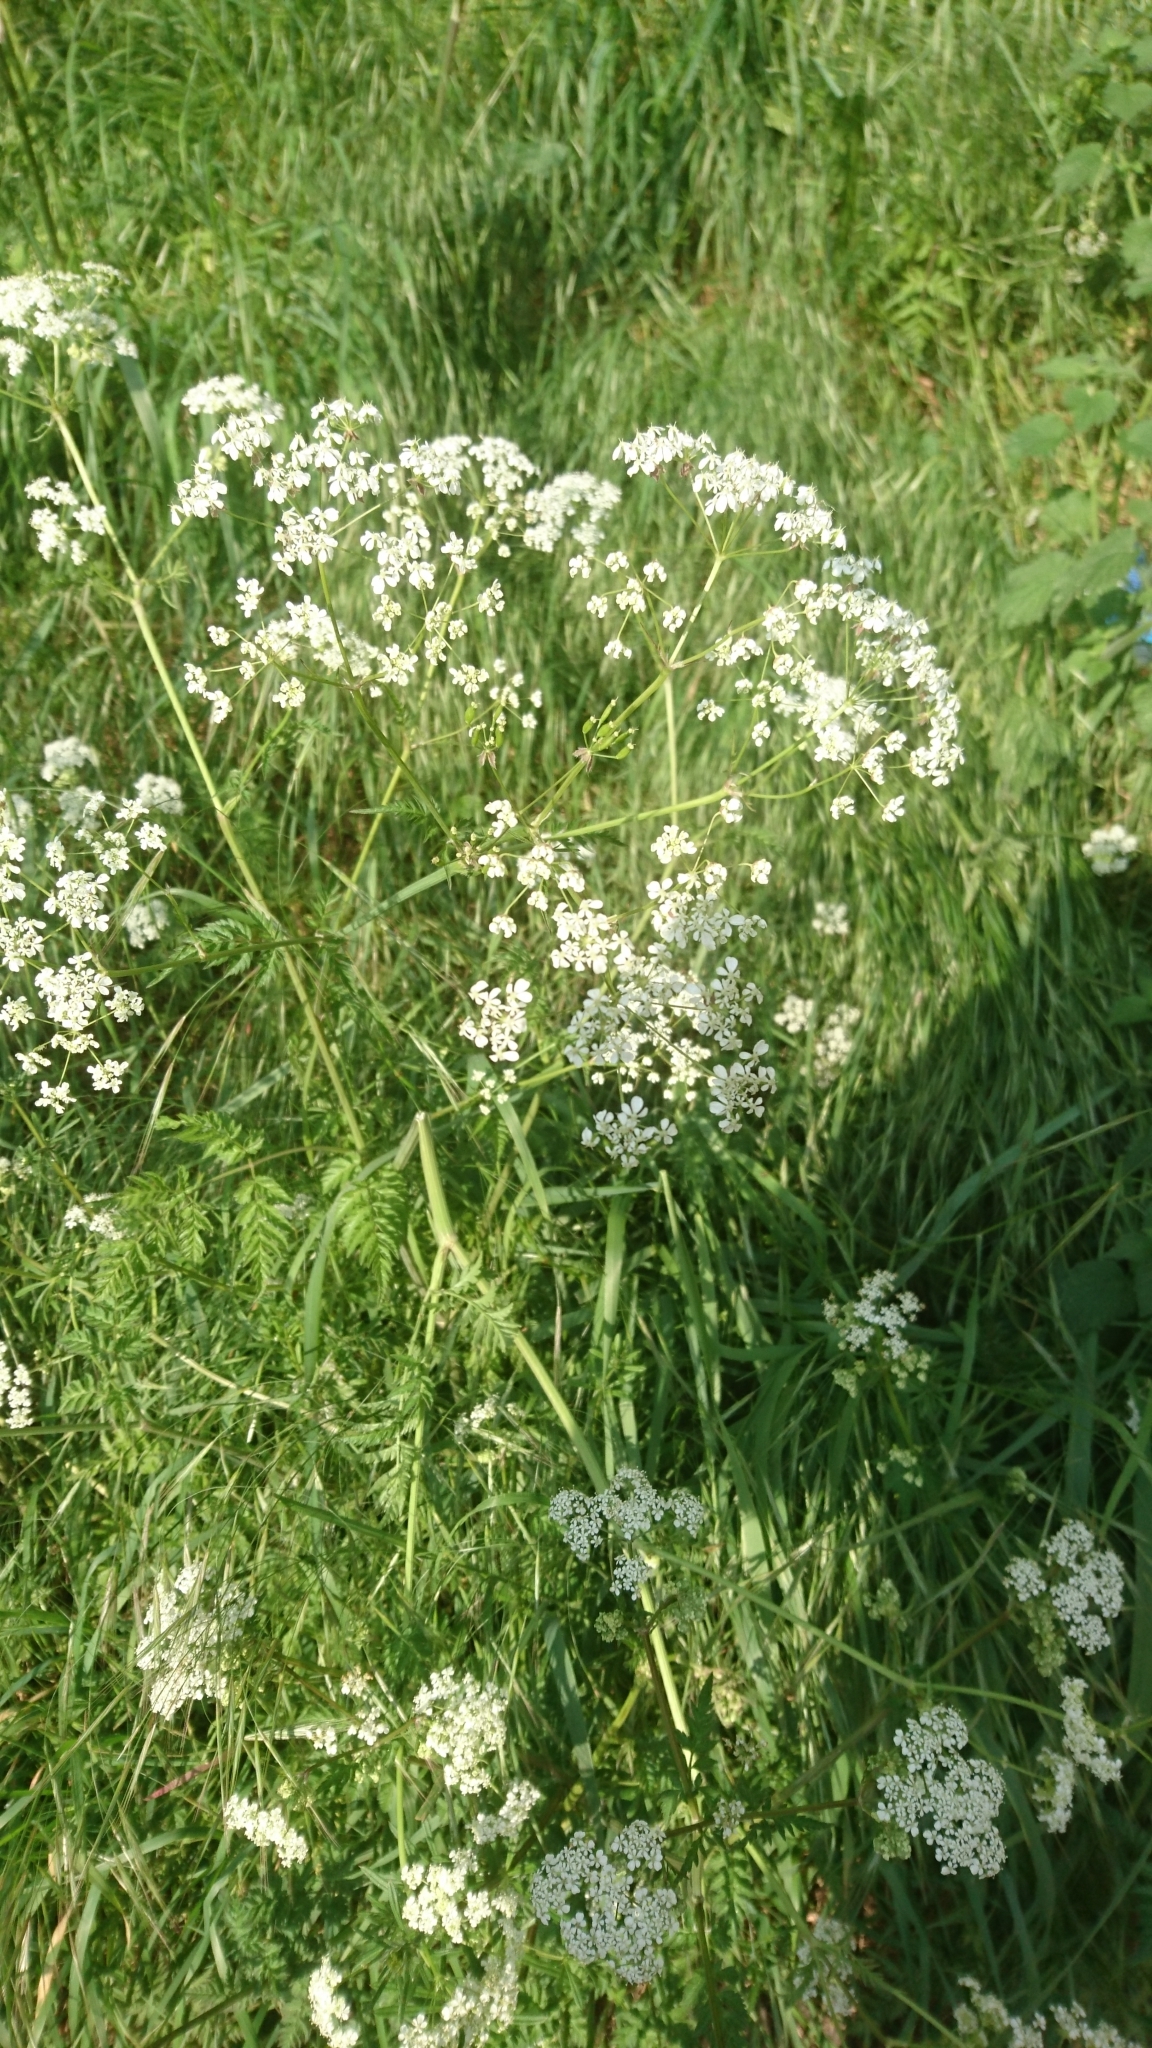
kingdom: Plantae
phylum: Tracheophyta
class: Magnoliopsida
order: Apiales
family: Apiaceae
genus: Anthriscus
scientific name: Anthriscus sylvestris
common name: Cow parsley
